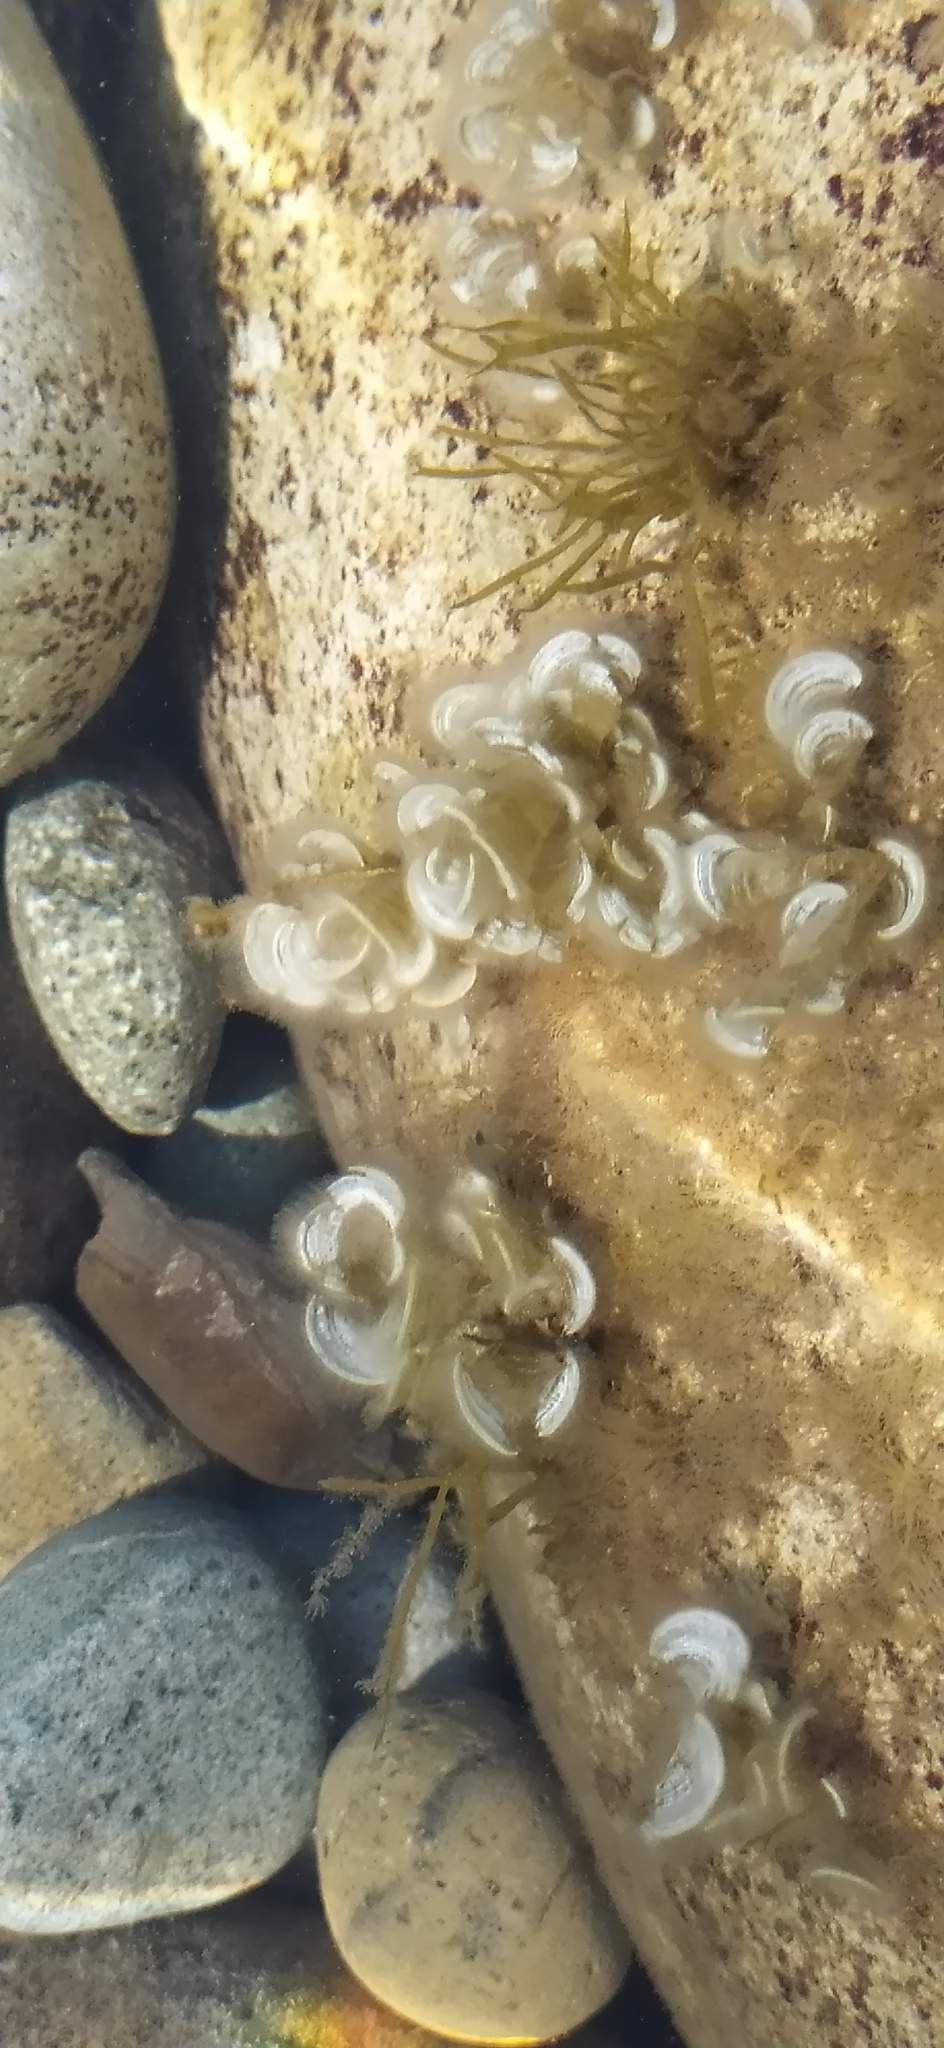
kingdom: Chromista
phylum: Ochrophyta
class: Phaeophyceae
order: Dictyotales
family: Dictyotaceae
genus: Padina
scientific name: Padina pavonica
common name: Turkey feather alga
